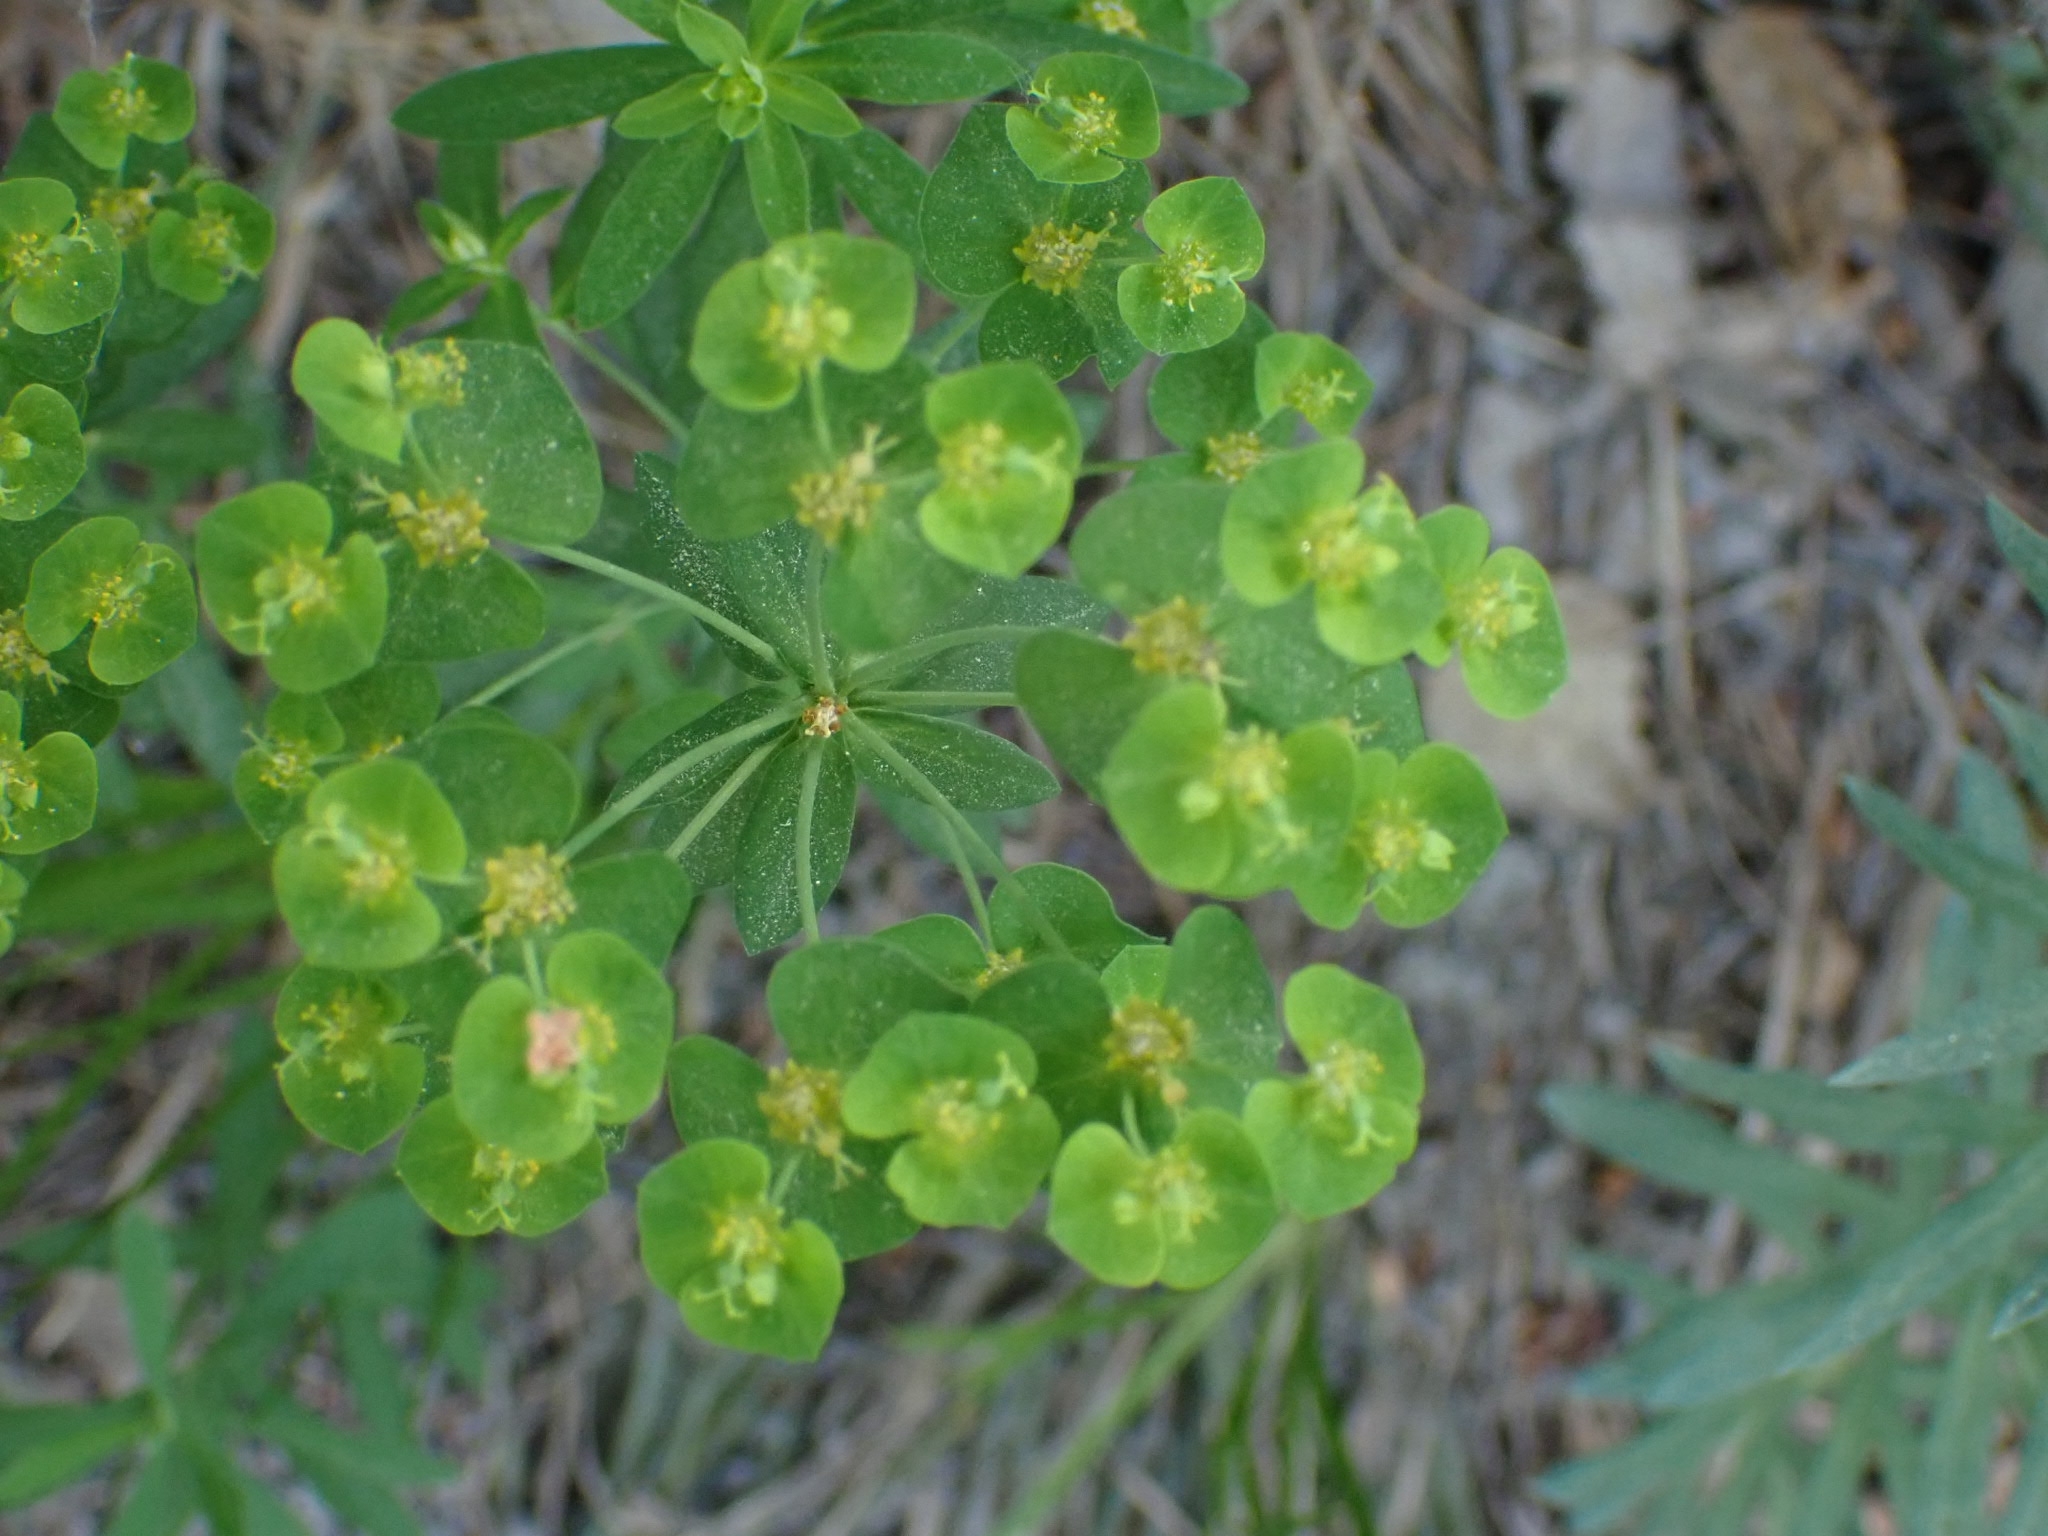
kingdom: Plantae
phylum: Tracheophyta
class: Magnoliopsida
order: Malpighiales
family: Euphorbiaceae
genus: Euphorbia
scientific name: Euphorbia virgata
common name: Leafy spurge
